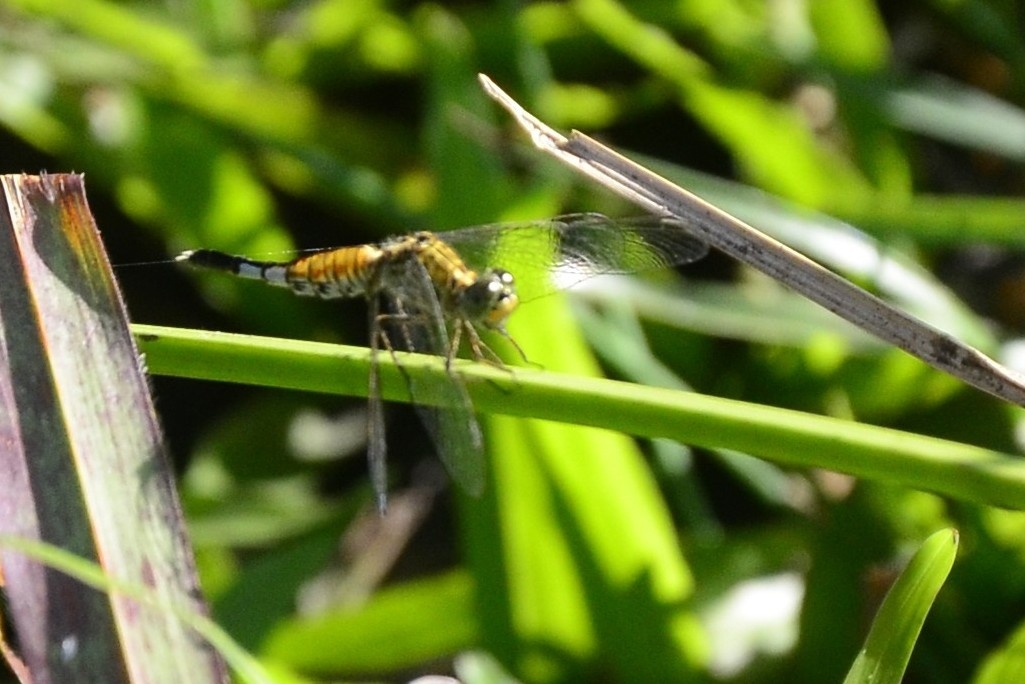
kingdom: Animalia
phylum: Arthropoda
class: Insecta
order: Odonata
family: Libellulidae
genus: Acisoma
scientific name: Acisoma panorpoides
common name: Asian pintail
